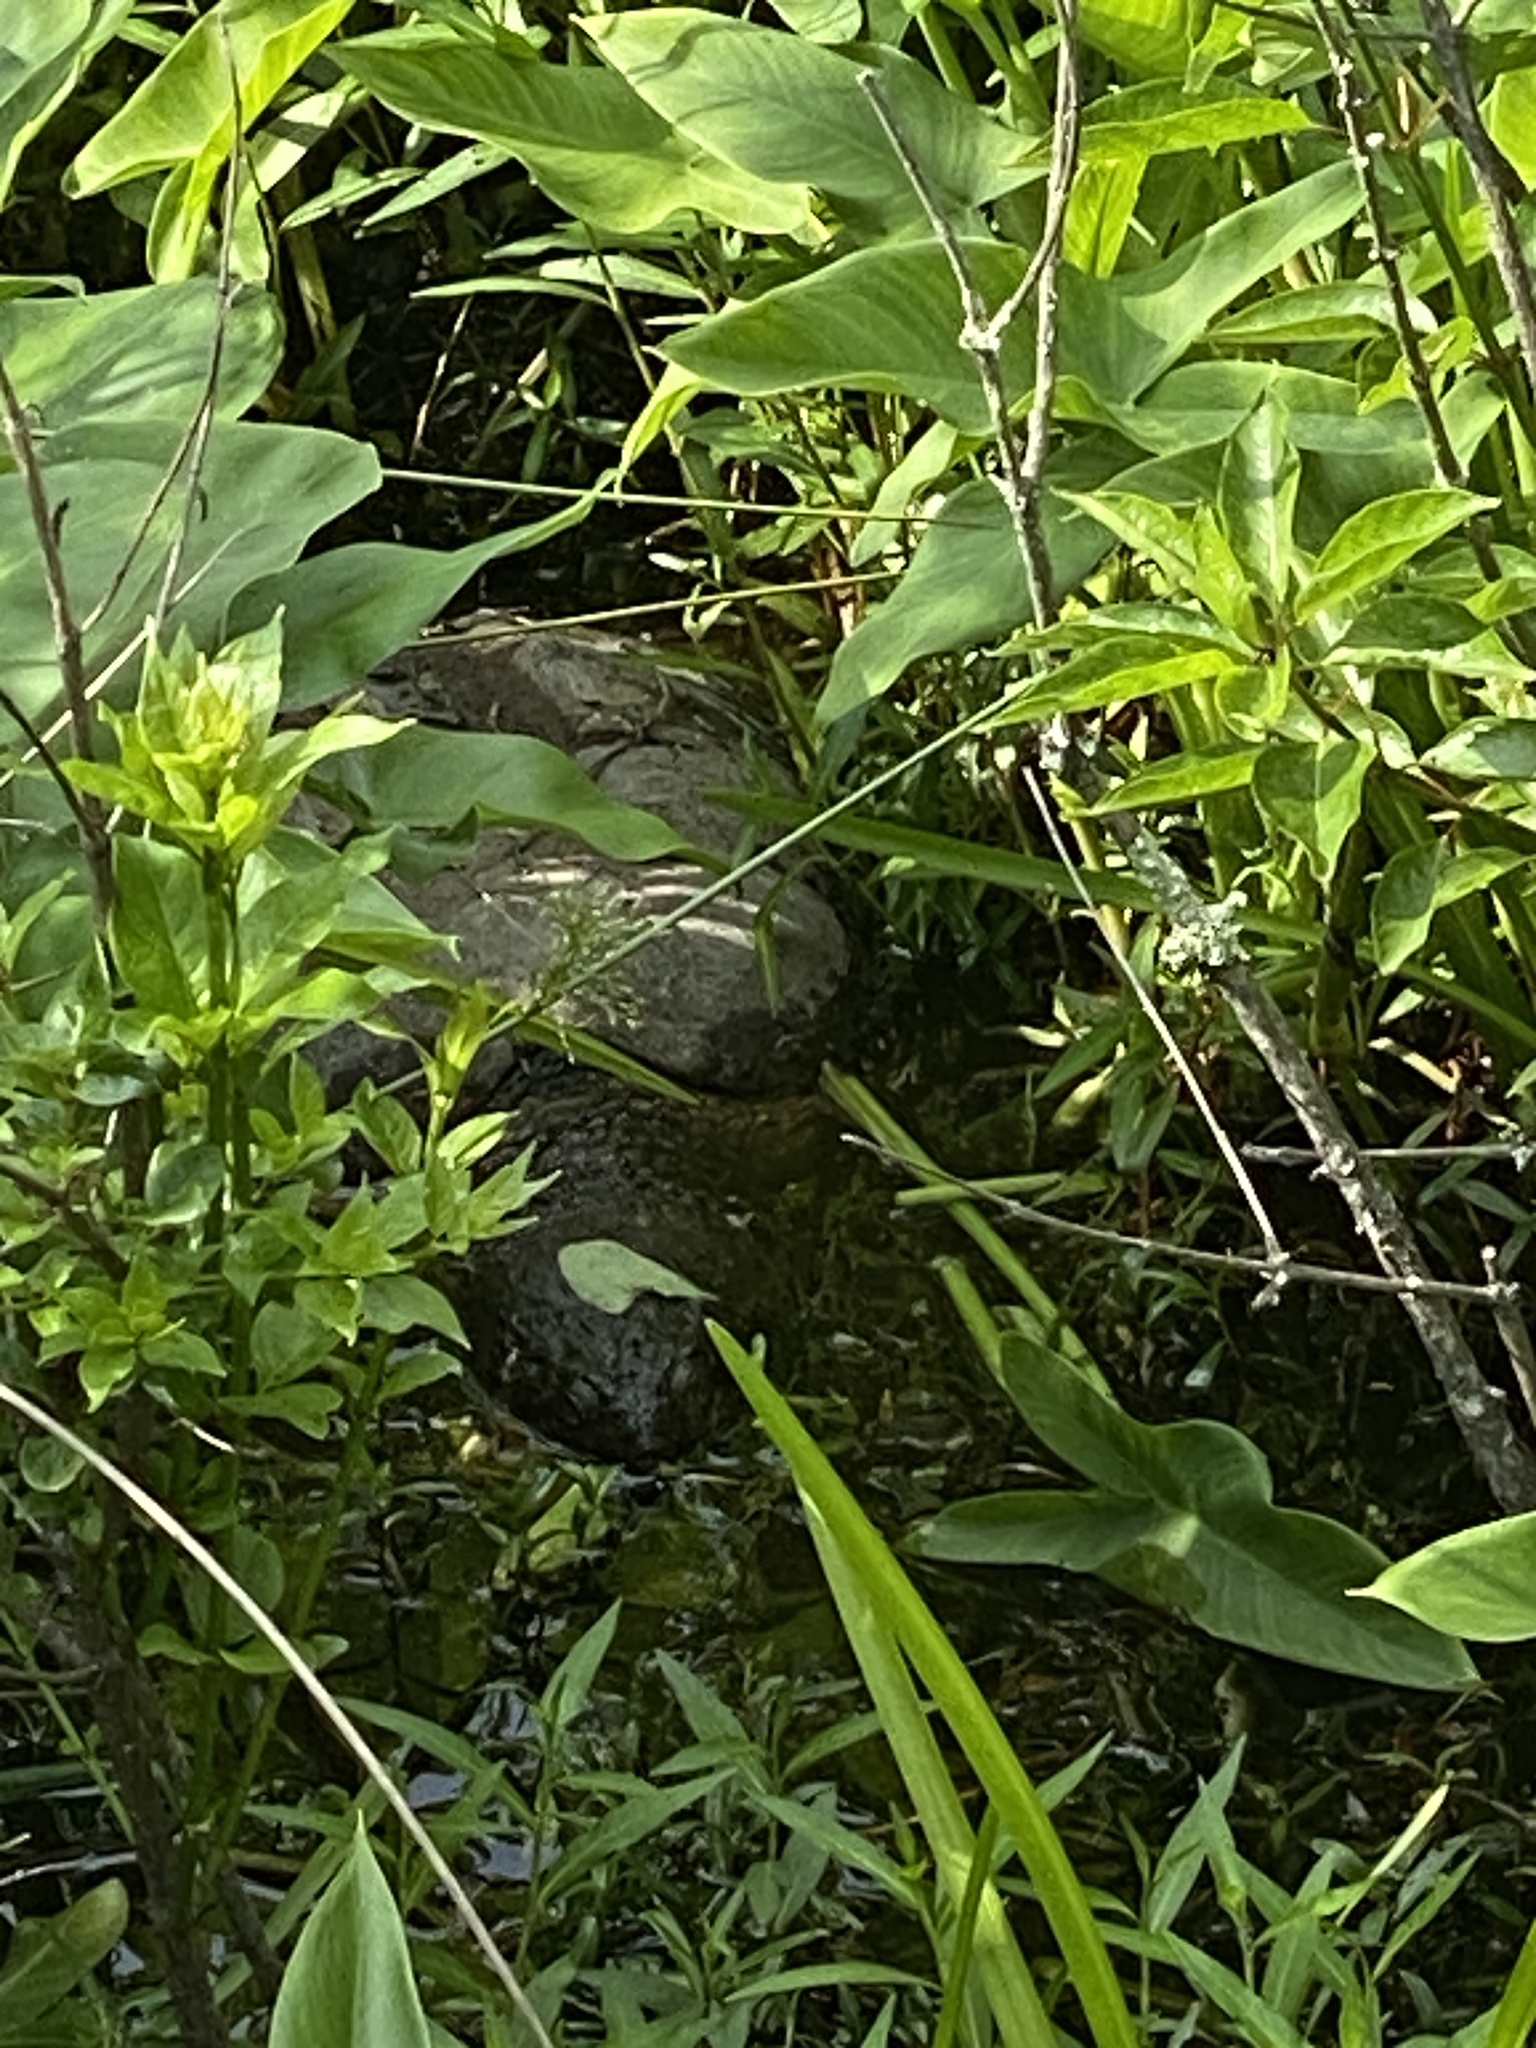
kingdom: Animalia
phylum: Chordata
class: Testudines
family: Chelydridae
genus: Chelydra
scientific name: Chelydra serpentina
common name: Common snapping turtle
